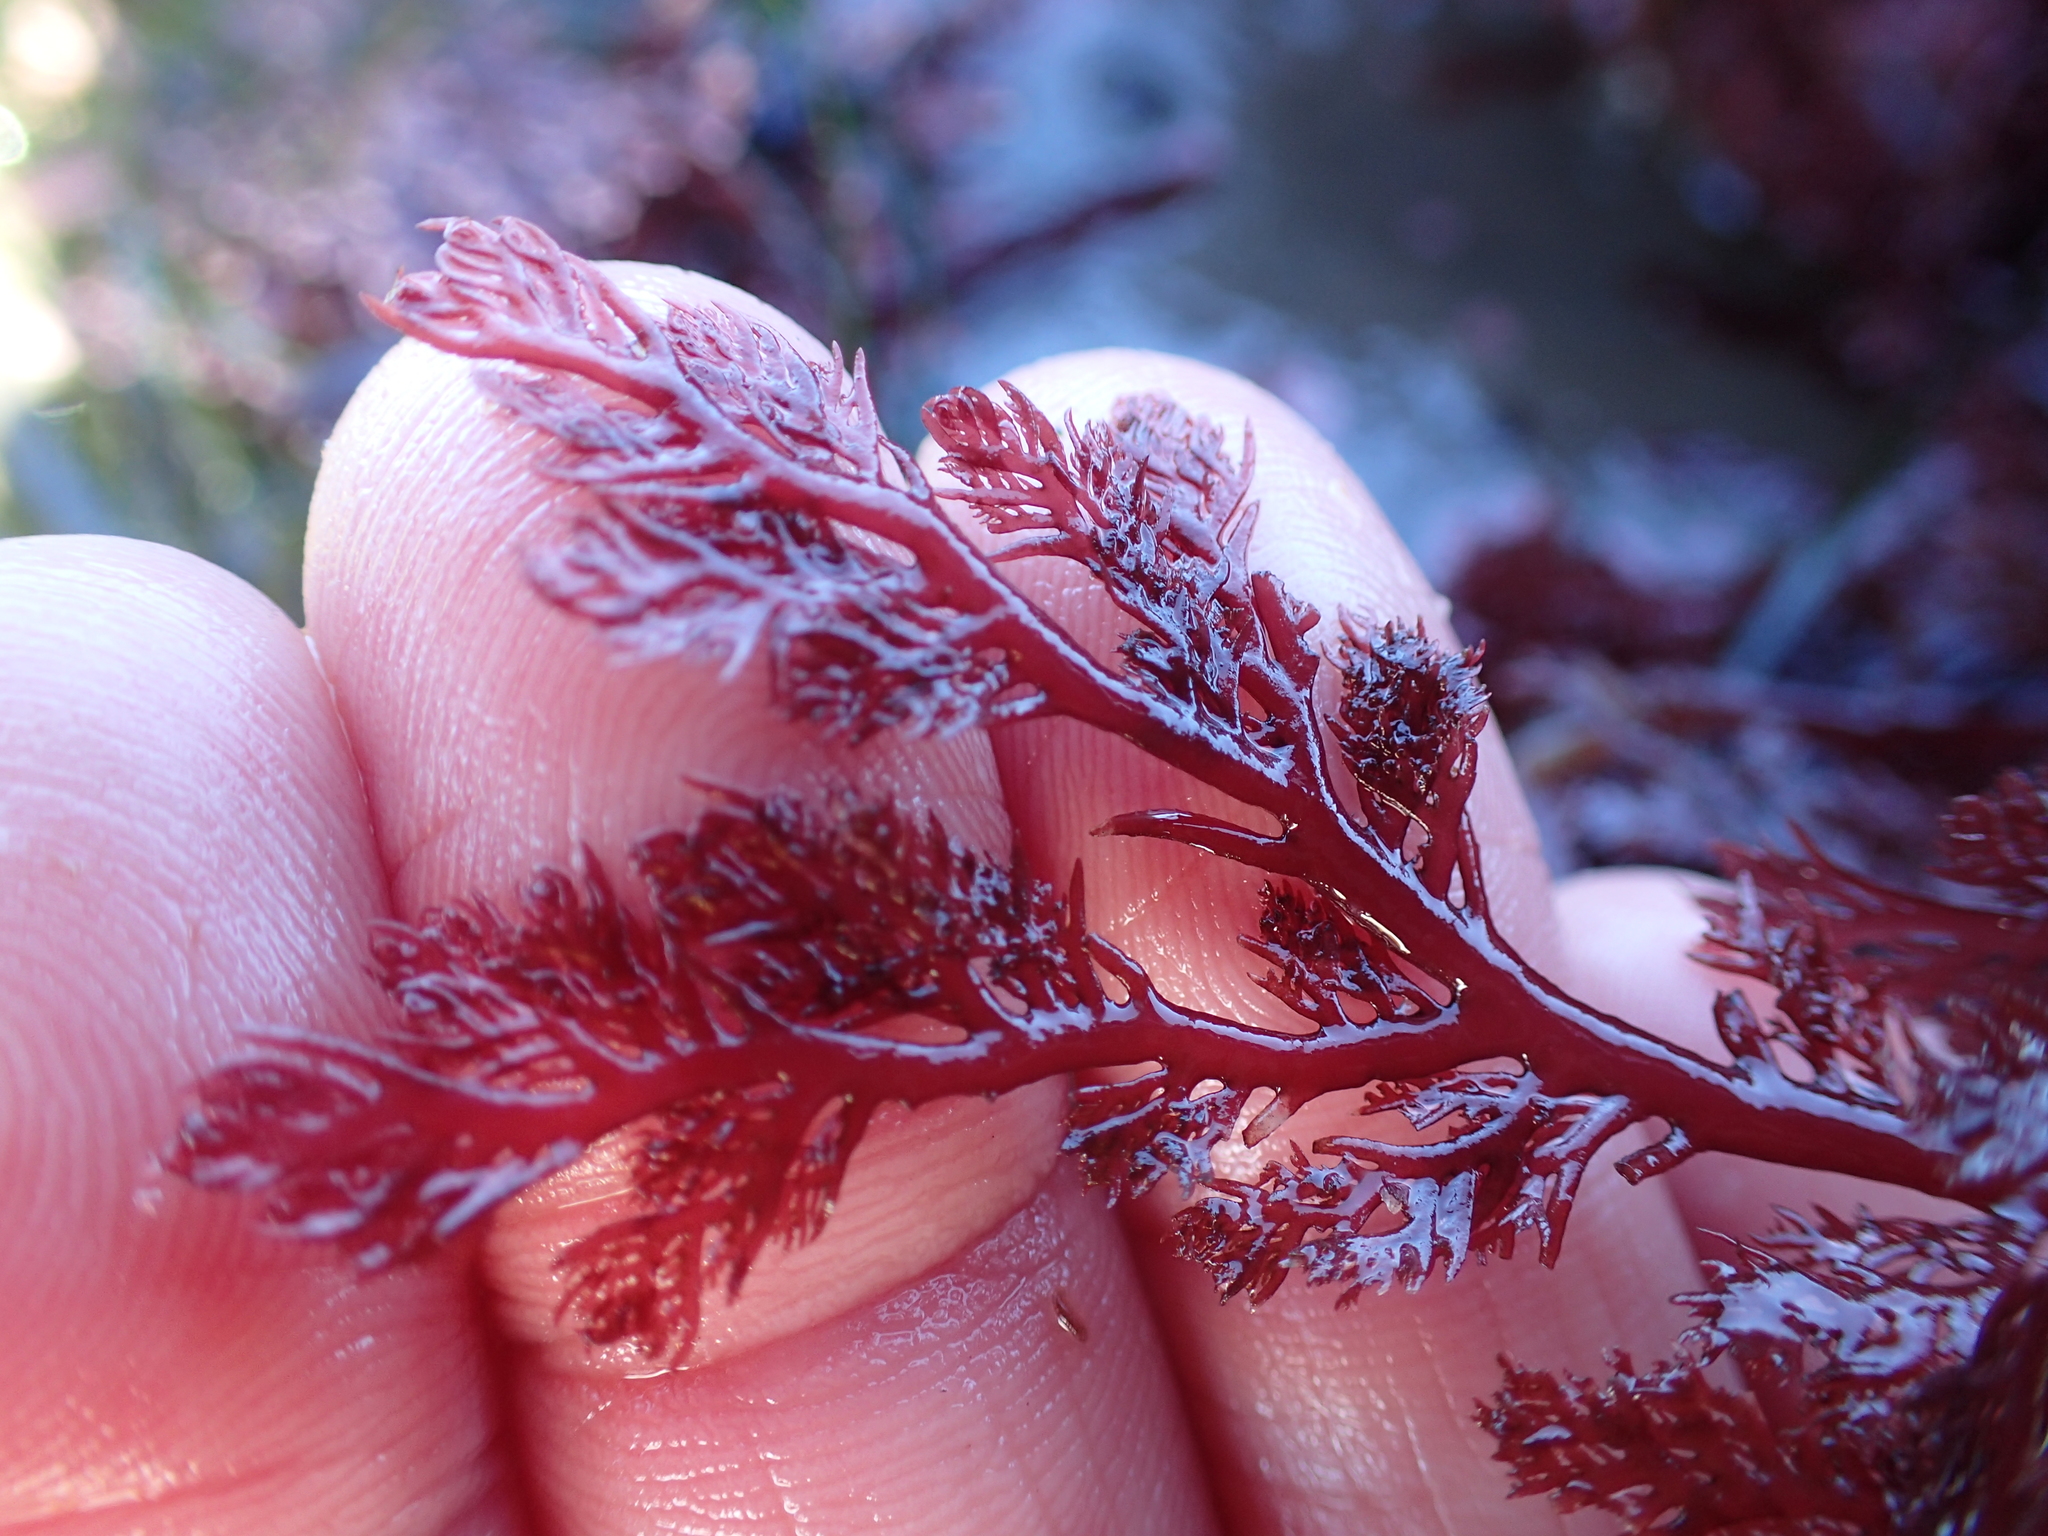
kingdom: Plantae
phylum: Rhodophyta
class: Florideophyceae
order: Plocamiales
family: Plocamiaceae
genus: Plocamium
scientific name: Plocamium cartilagineum
